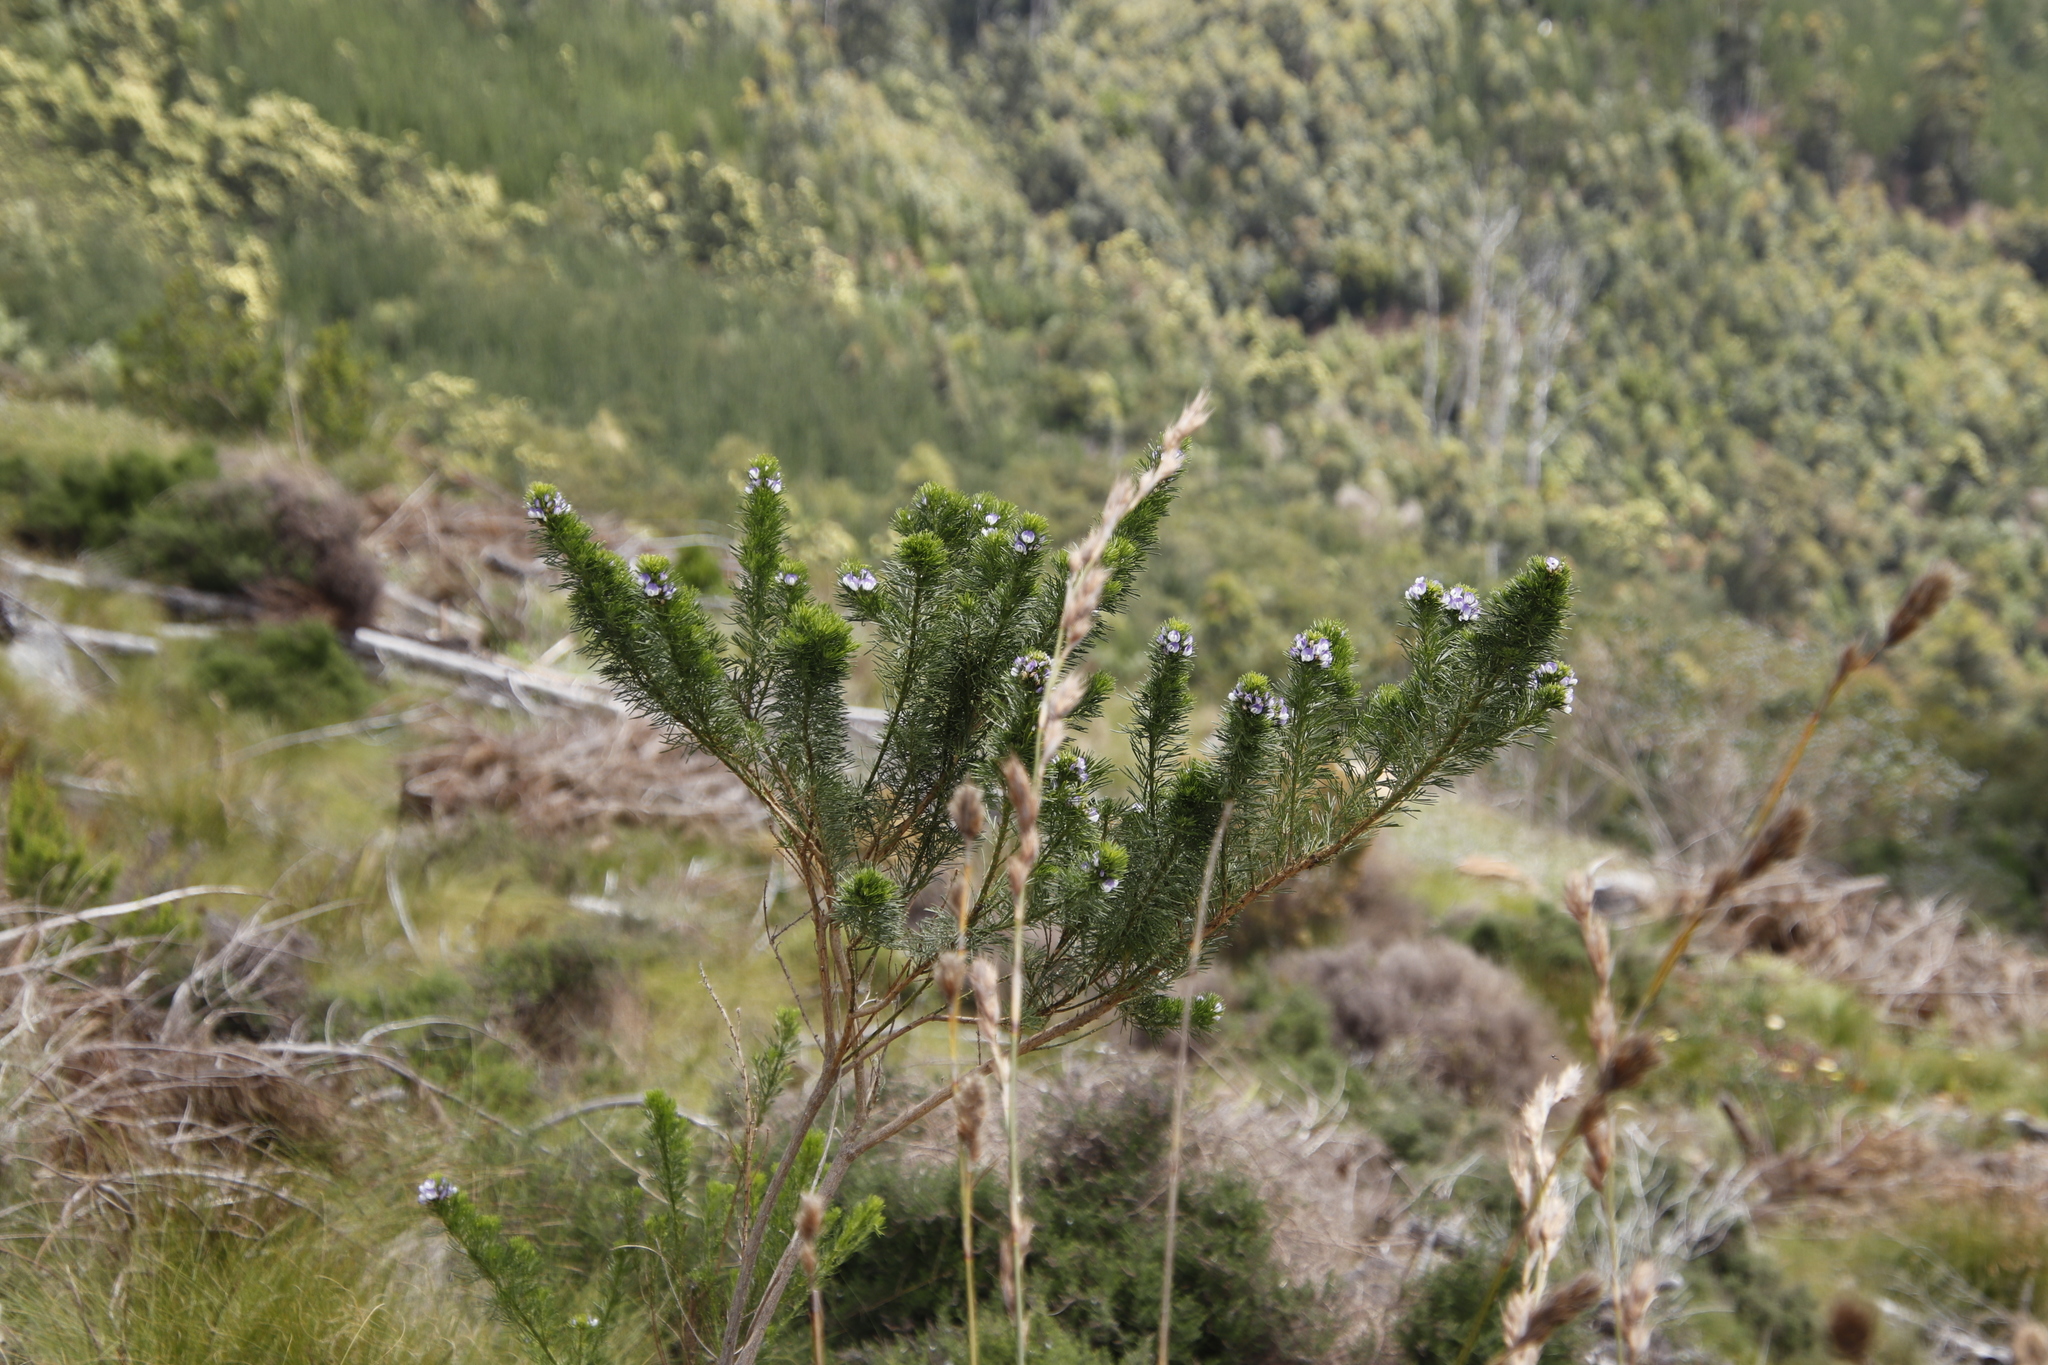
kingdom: Plantae
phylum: Tracheophyta
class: Magnoliopsida
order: Fabales
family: Fabaceae
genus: Psoralea
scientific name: Psoralea pinnata
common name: African scurfpea
